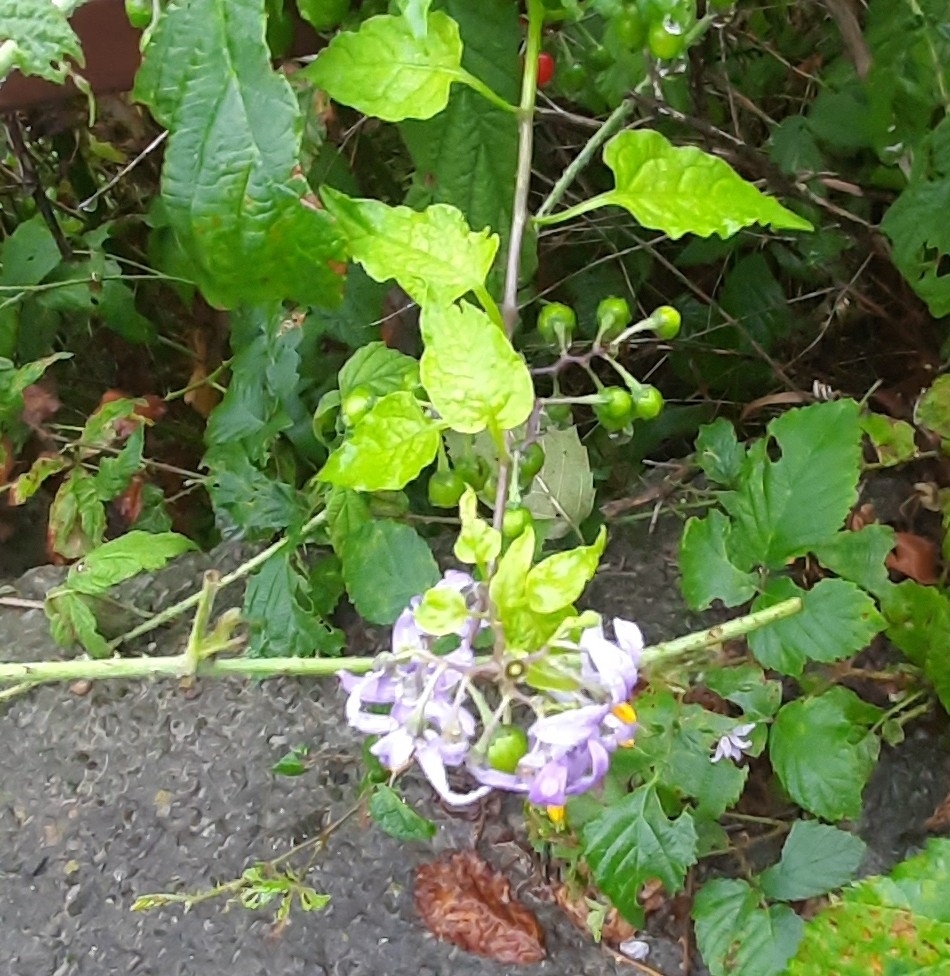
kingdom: Plantae
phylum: Tracheophyta
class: Magnoliopsida
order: Solanales
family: Solanaceae
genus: Solanum
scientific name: Solanum dulcamara
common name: Climbing nightshade
